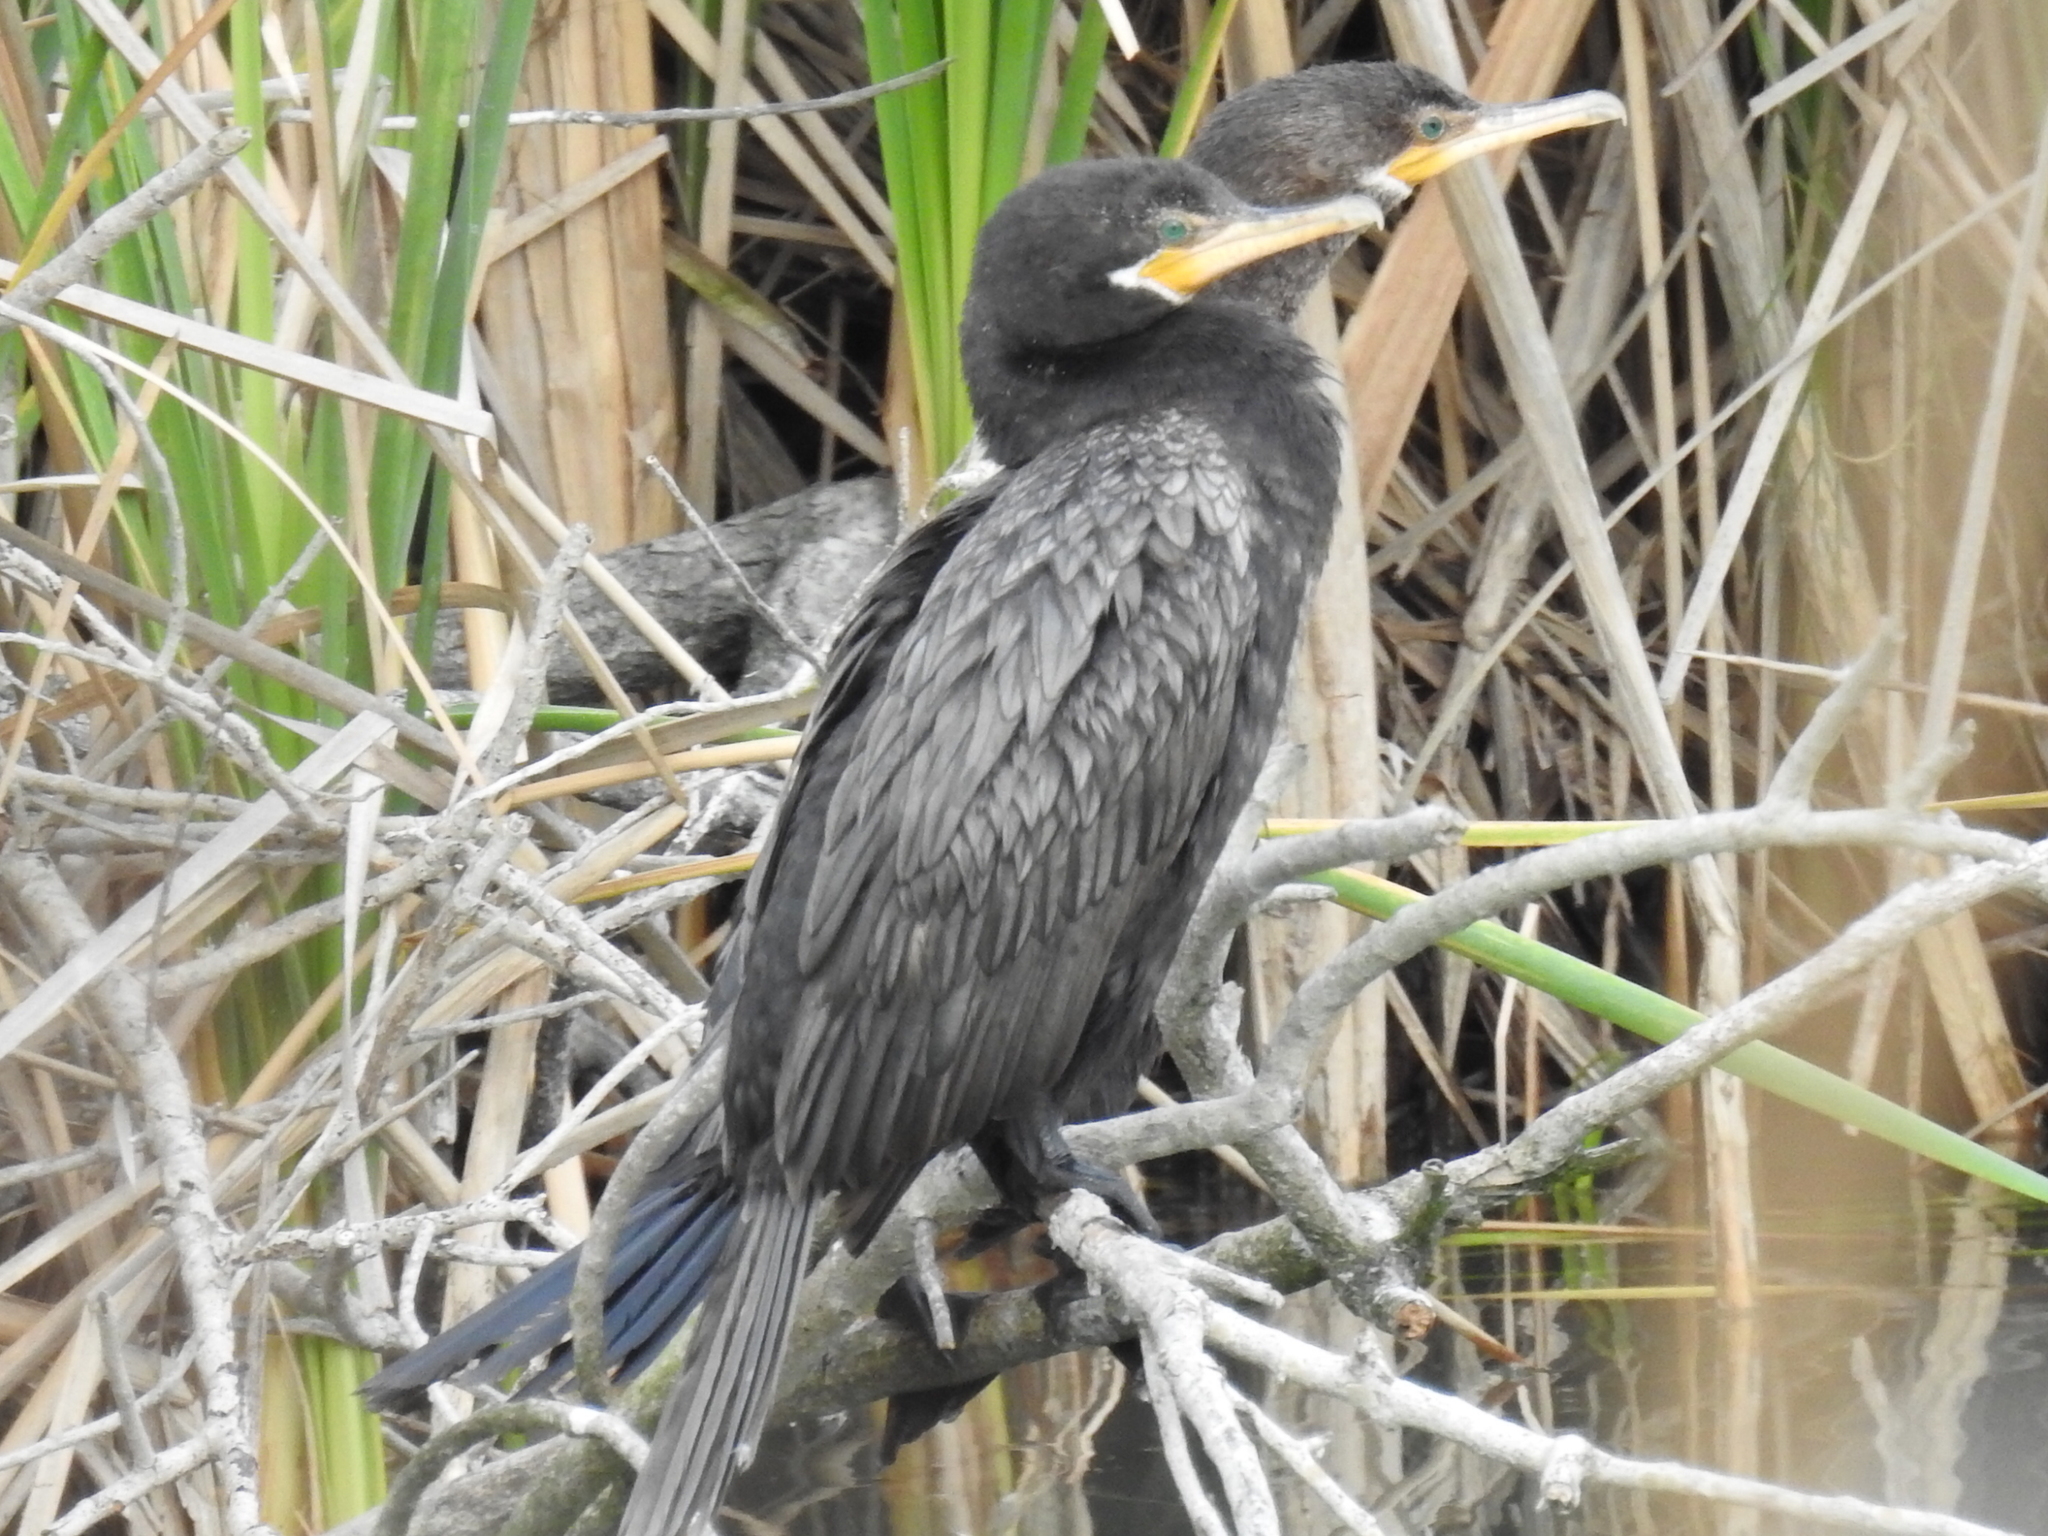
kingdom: Animalia
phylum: Chordata
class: Aves
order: Suliformes
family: Phalacrocoracidae
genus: Phalacrocorax
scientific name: Phalacrocorax brasilianus
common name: Neotropic cormorant
